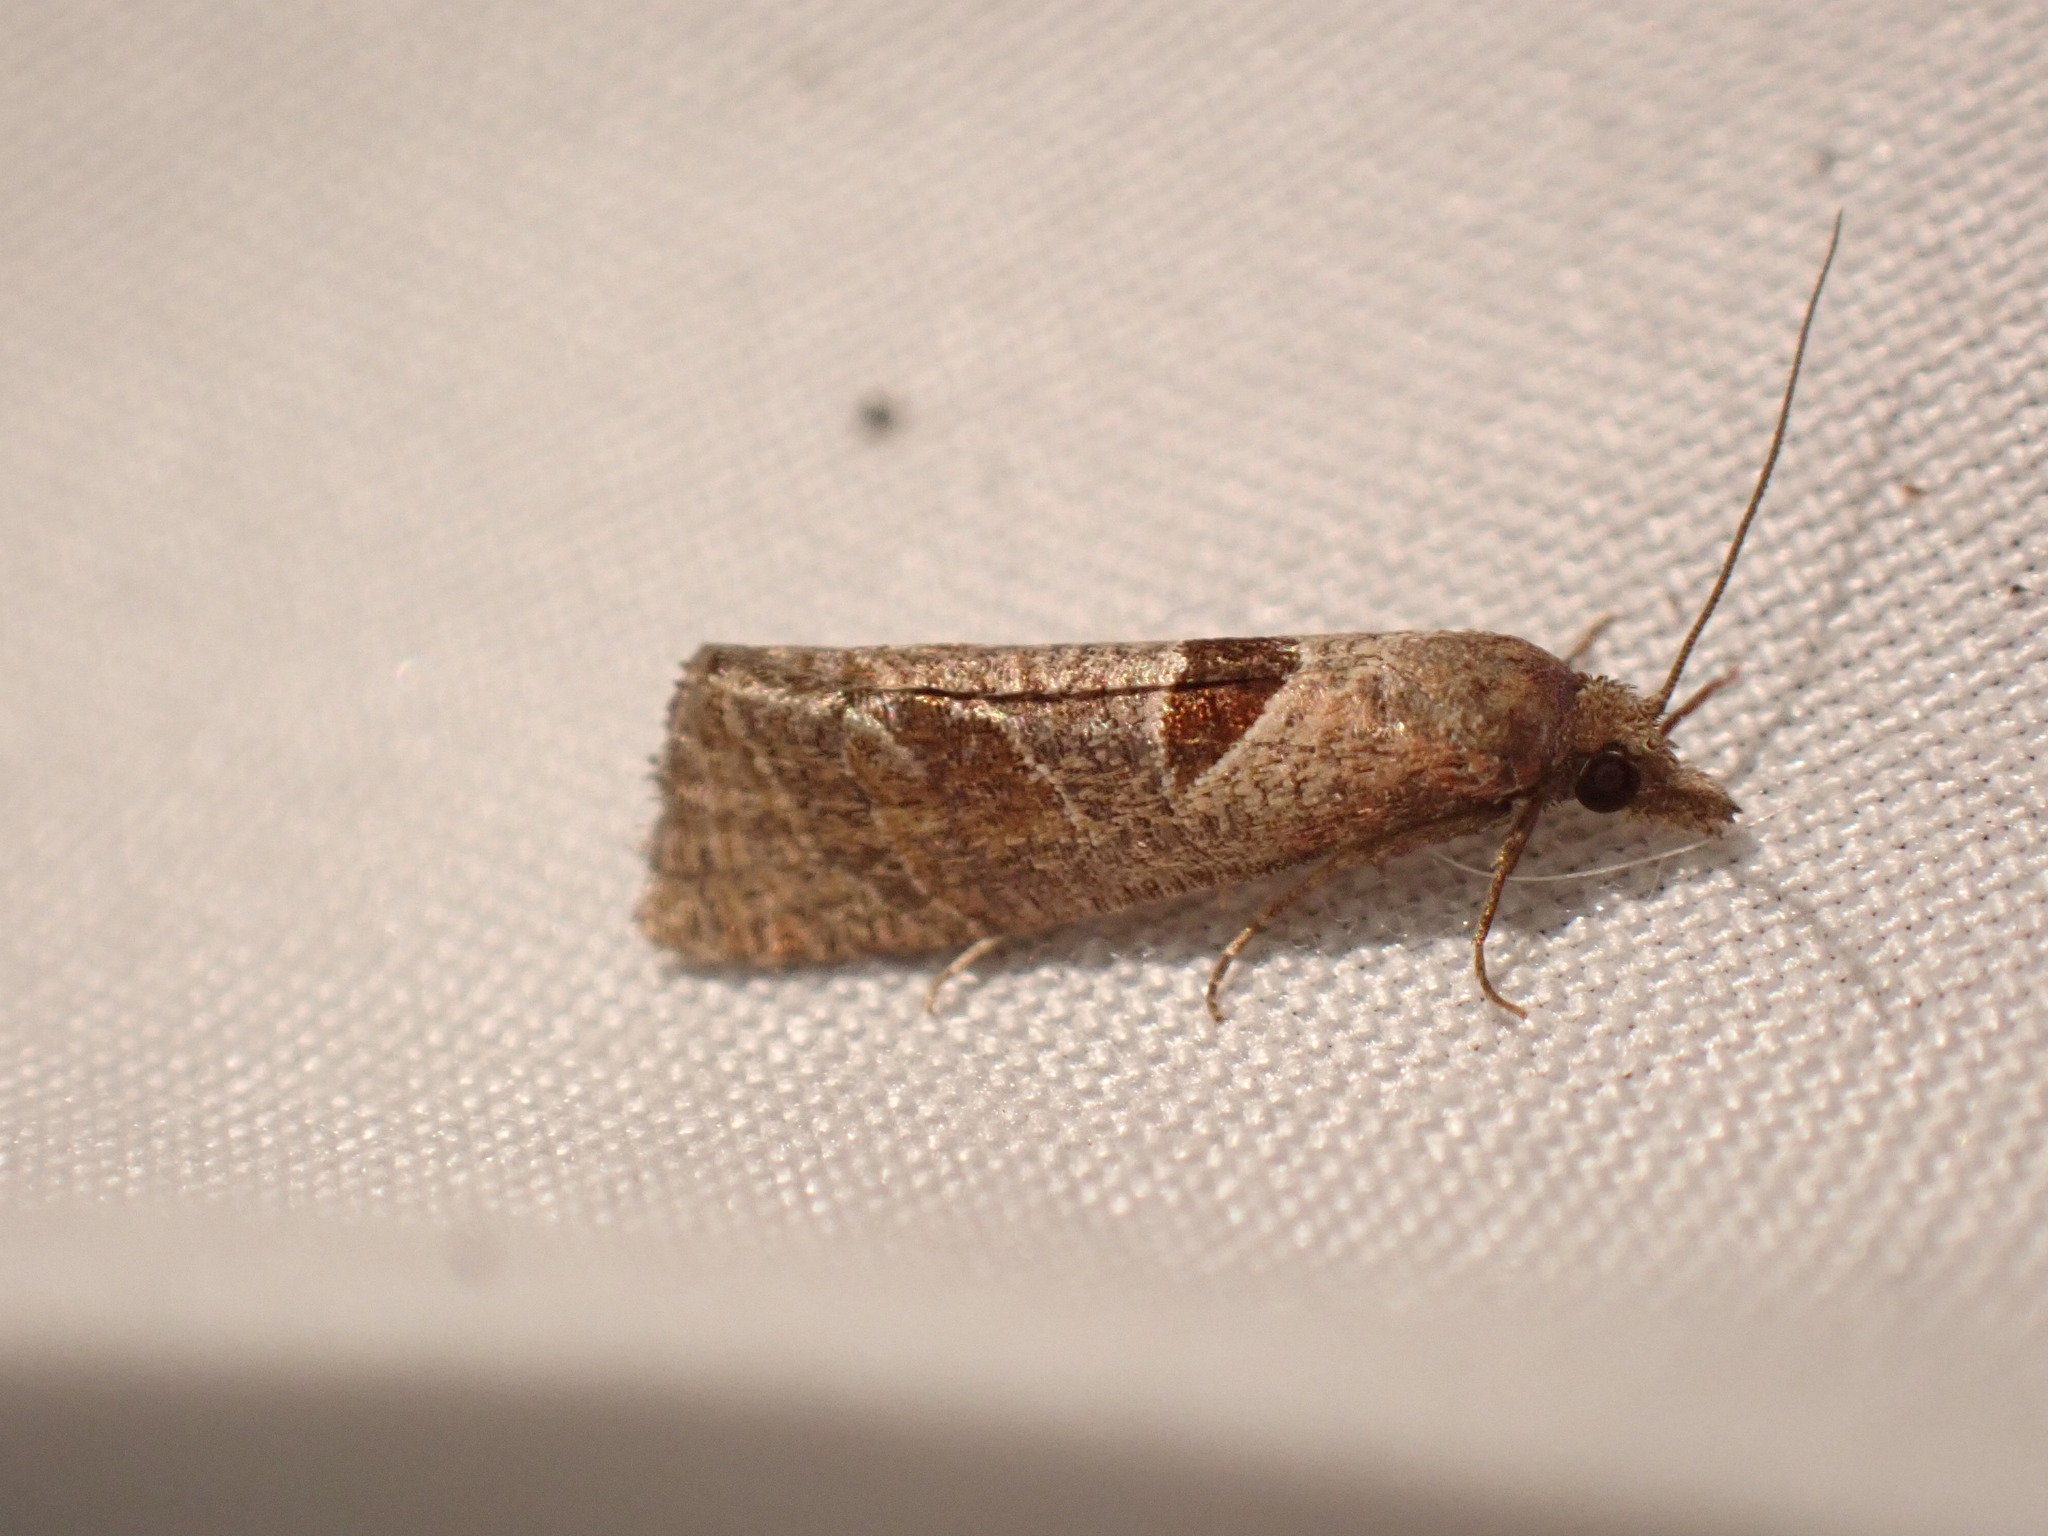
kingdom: Animalia
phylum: Arthropoda
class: Insecta
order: Lepidoptera
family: Tortricidae
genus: Pelochrista
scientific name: Pelochrista dorsisignatana
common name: Triangle-backed pelochrista moth
